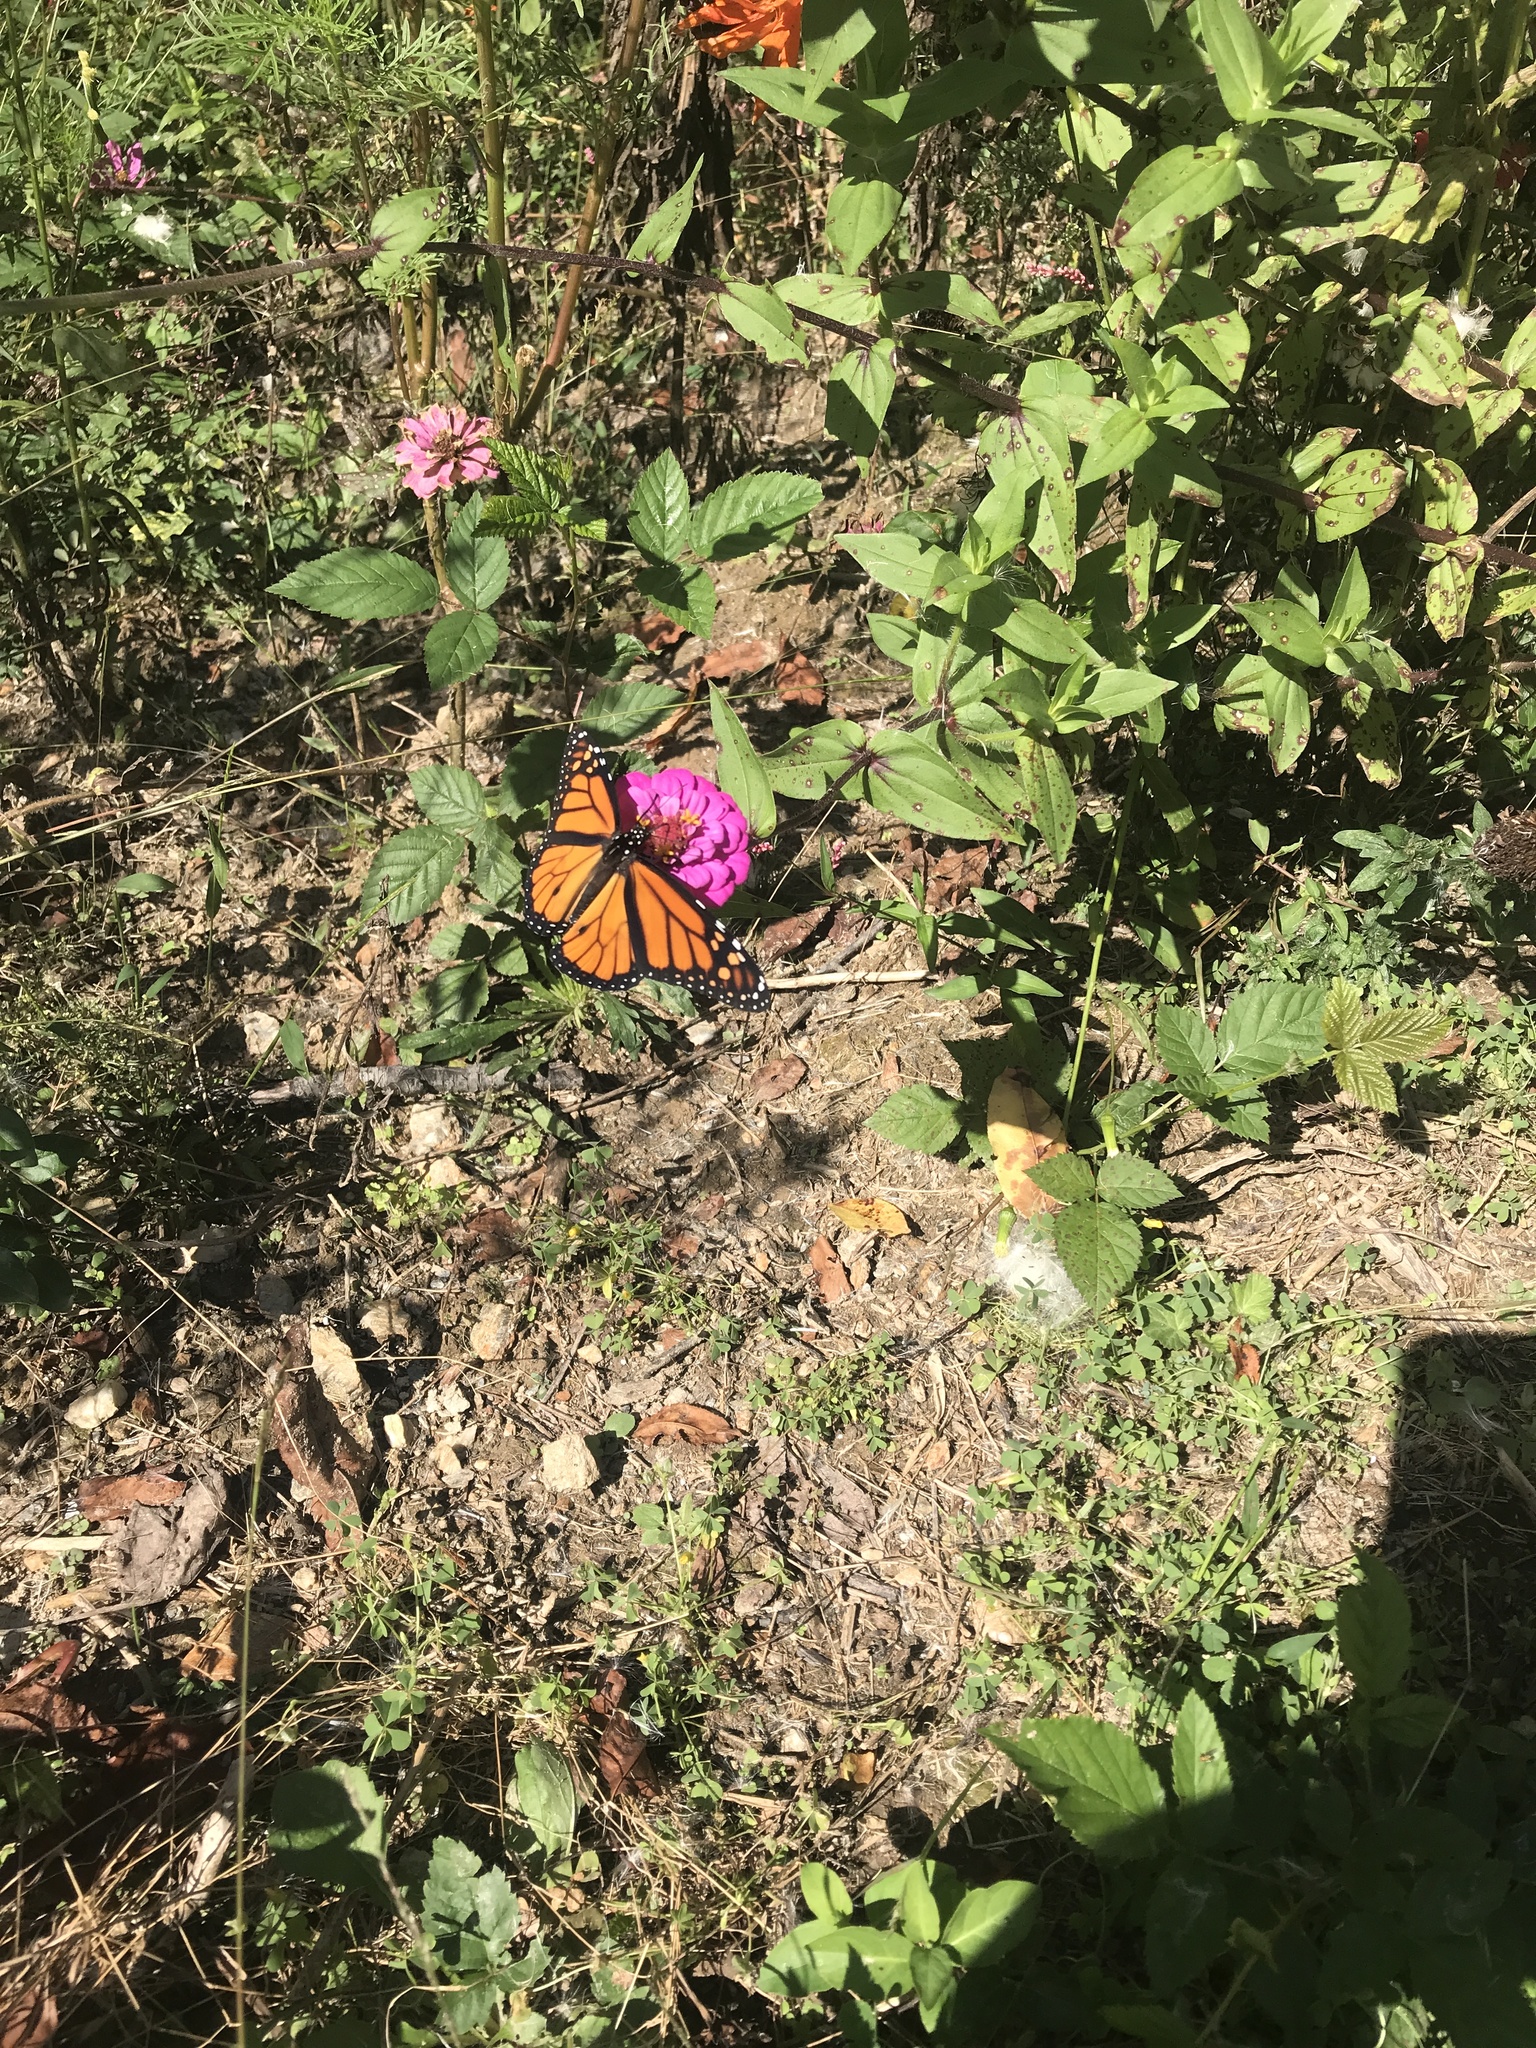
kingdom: Animalia
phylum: Arthropoda
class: Insecta
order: Lepidoptera
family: Nymphalidae
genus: Danaus
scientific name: Danaus plexippus
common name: Monarch
